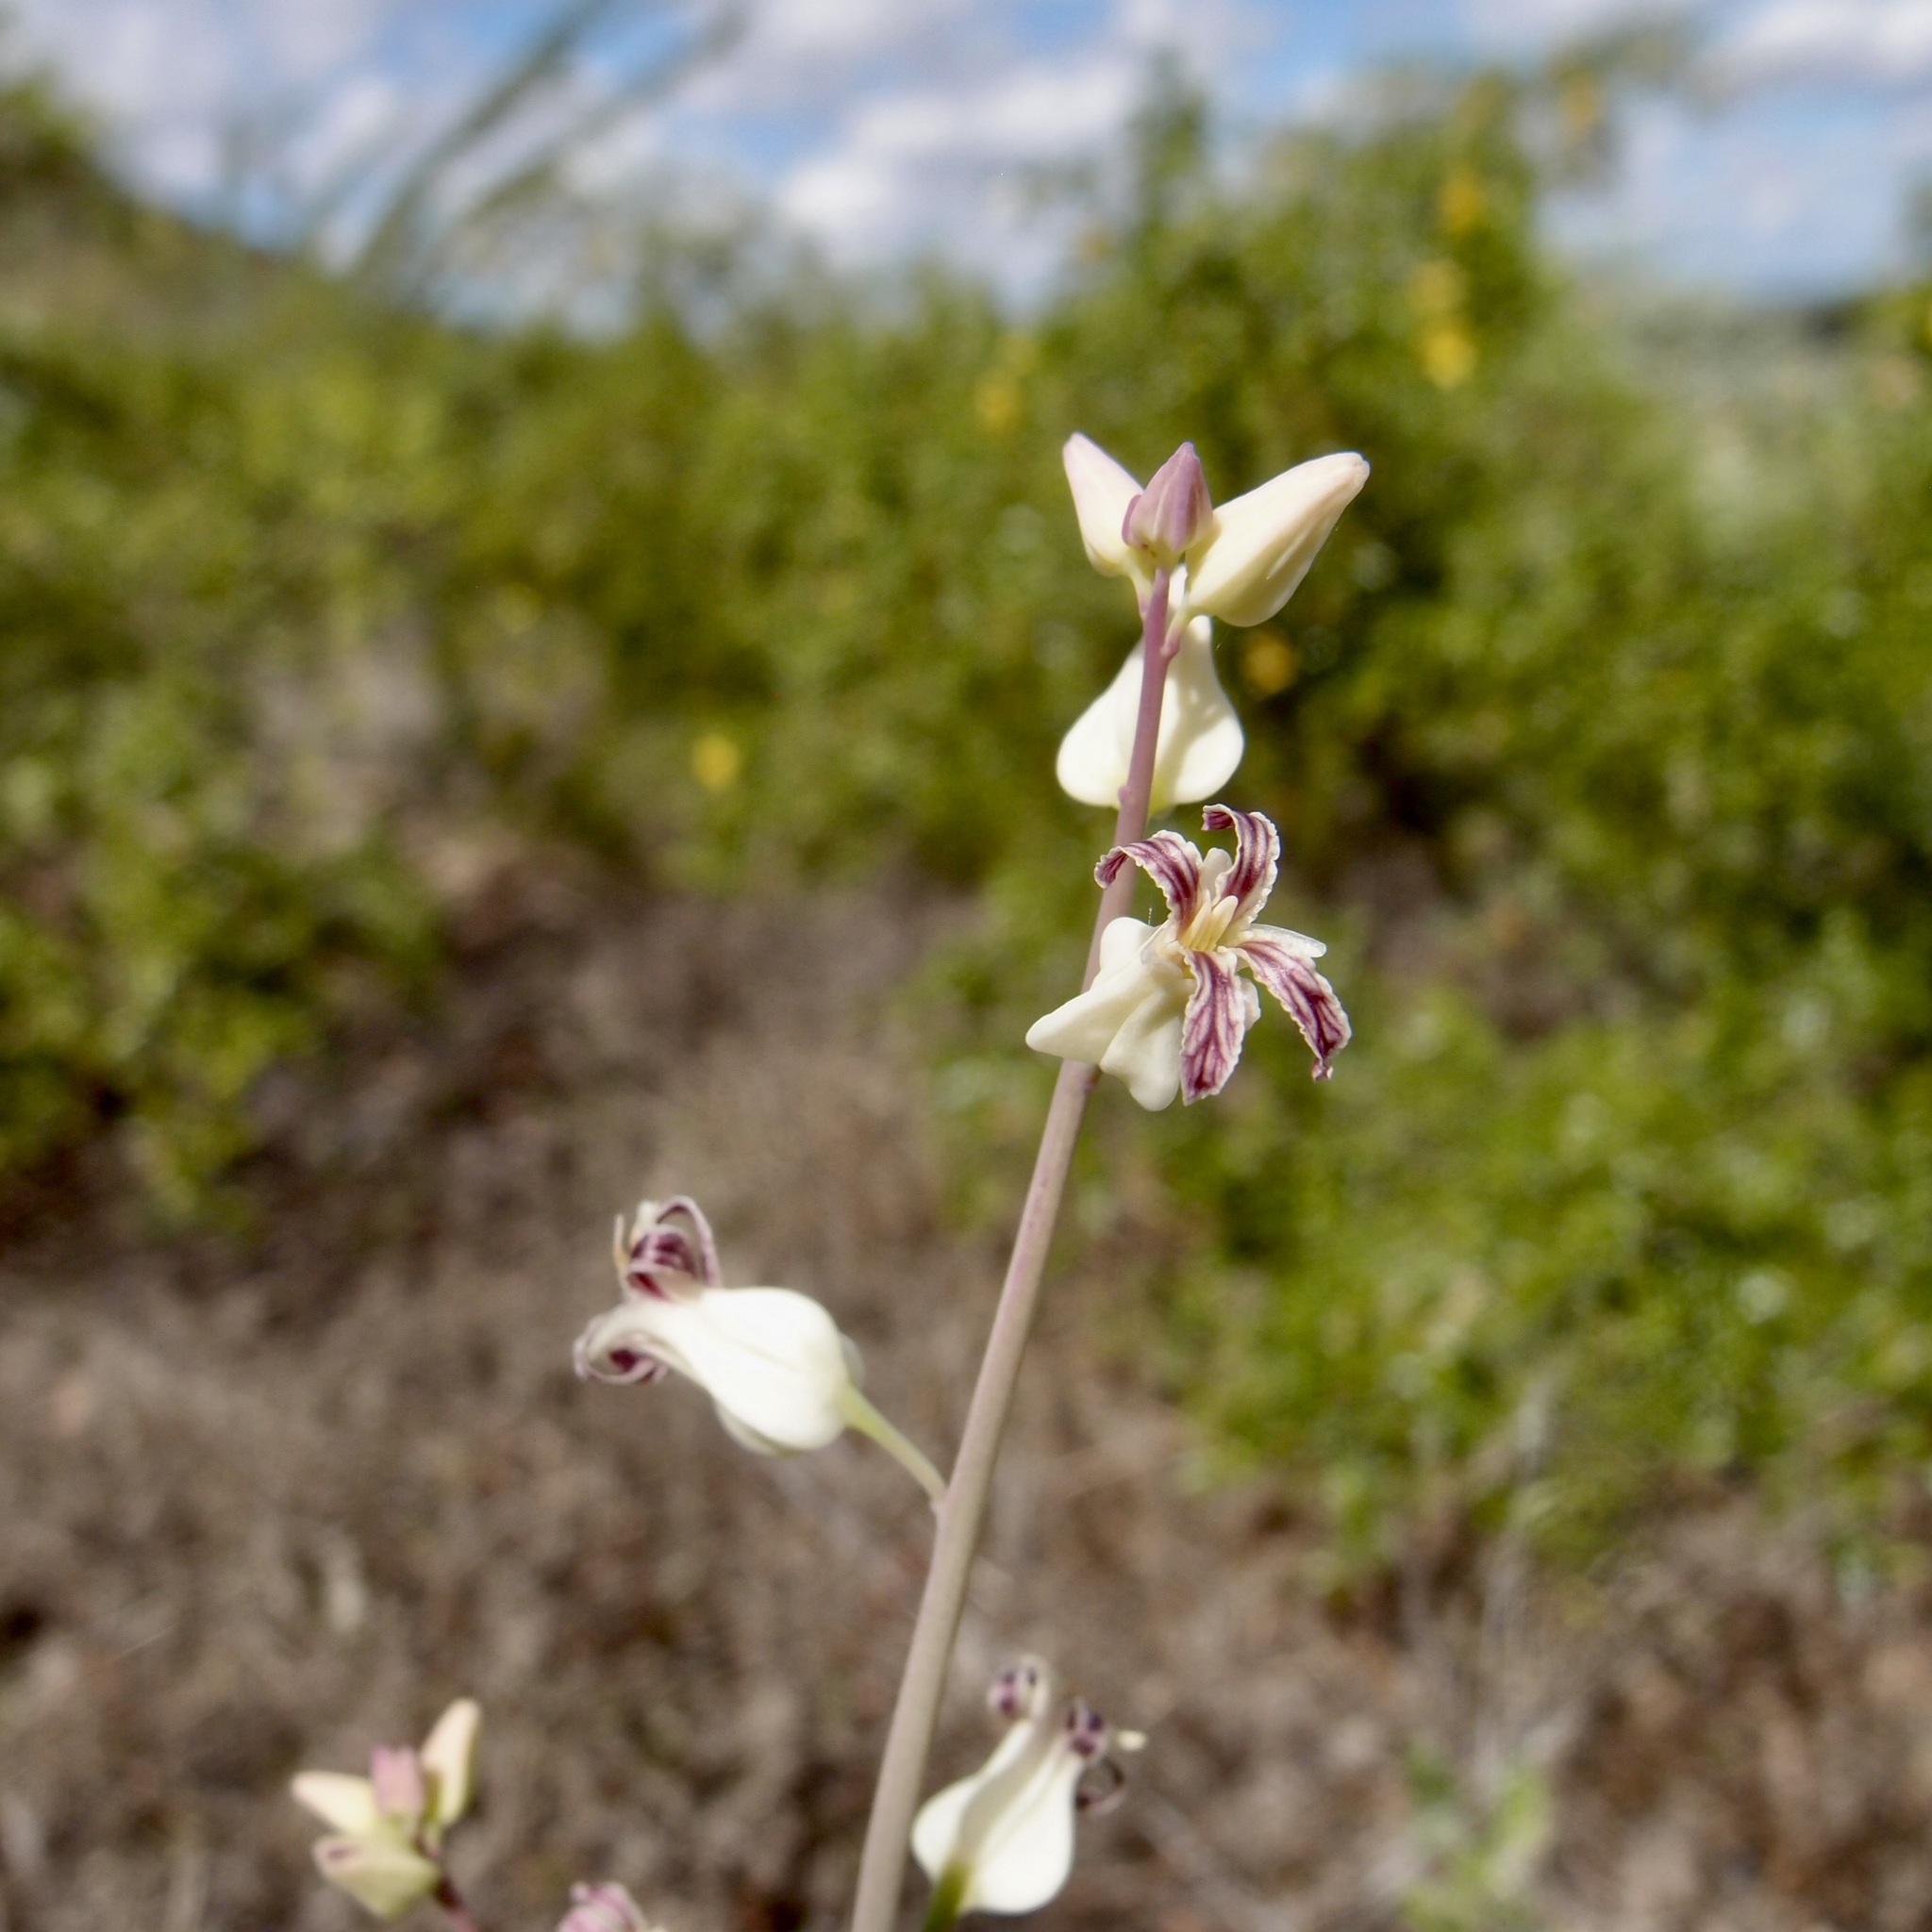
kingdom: Plantae
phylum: Tracheophyta
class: Magnoliopsida
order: Brassicales
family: Brassicaceae
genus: Streptanthus
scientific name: Streptanthus carinatus
